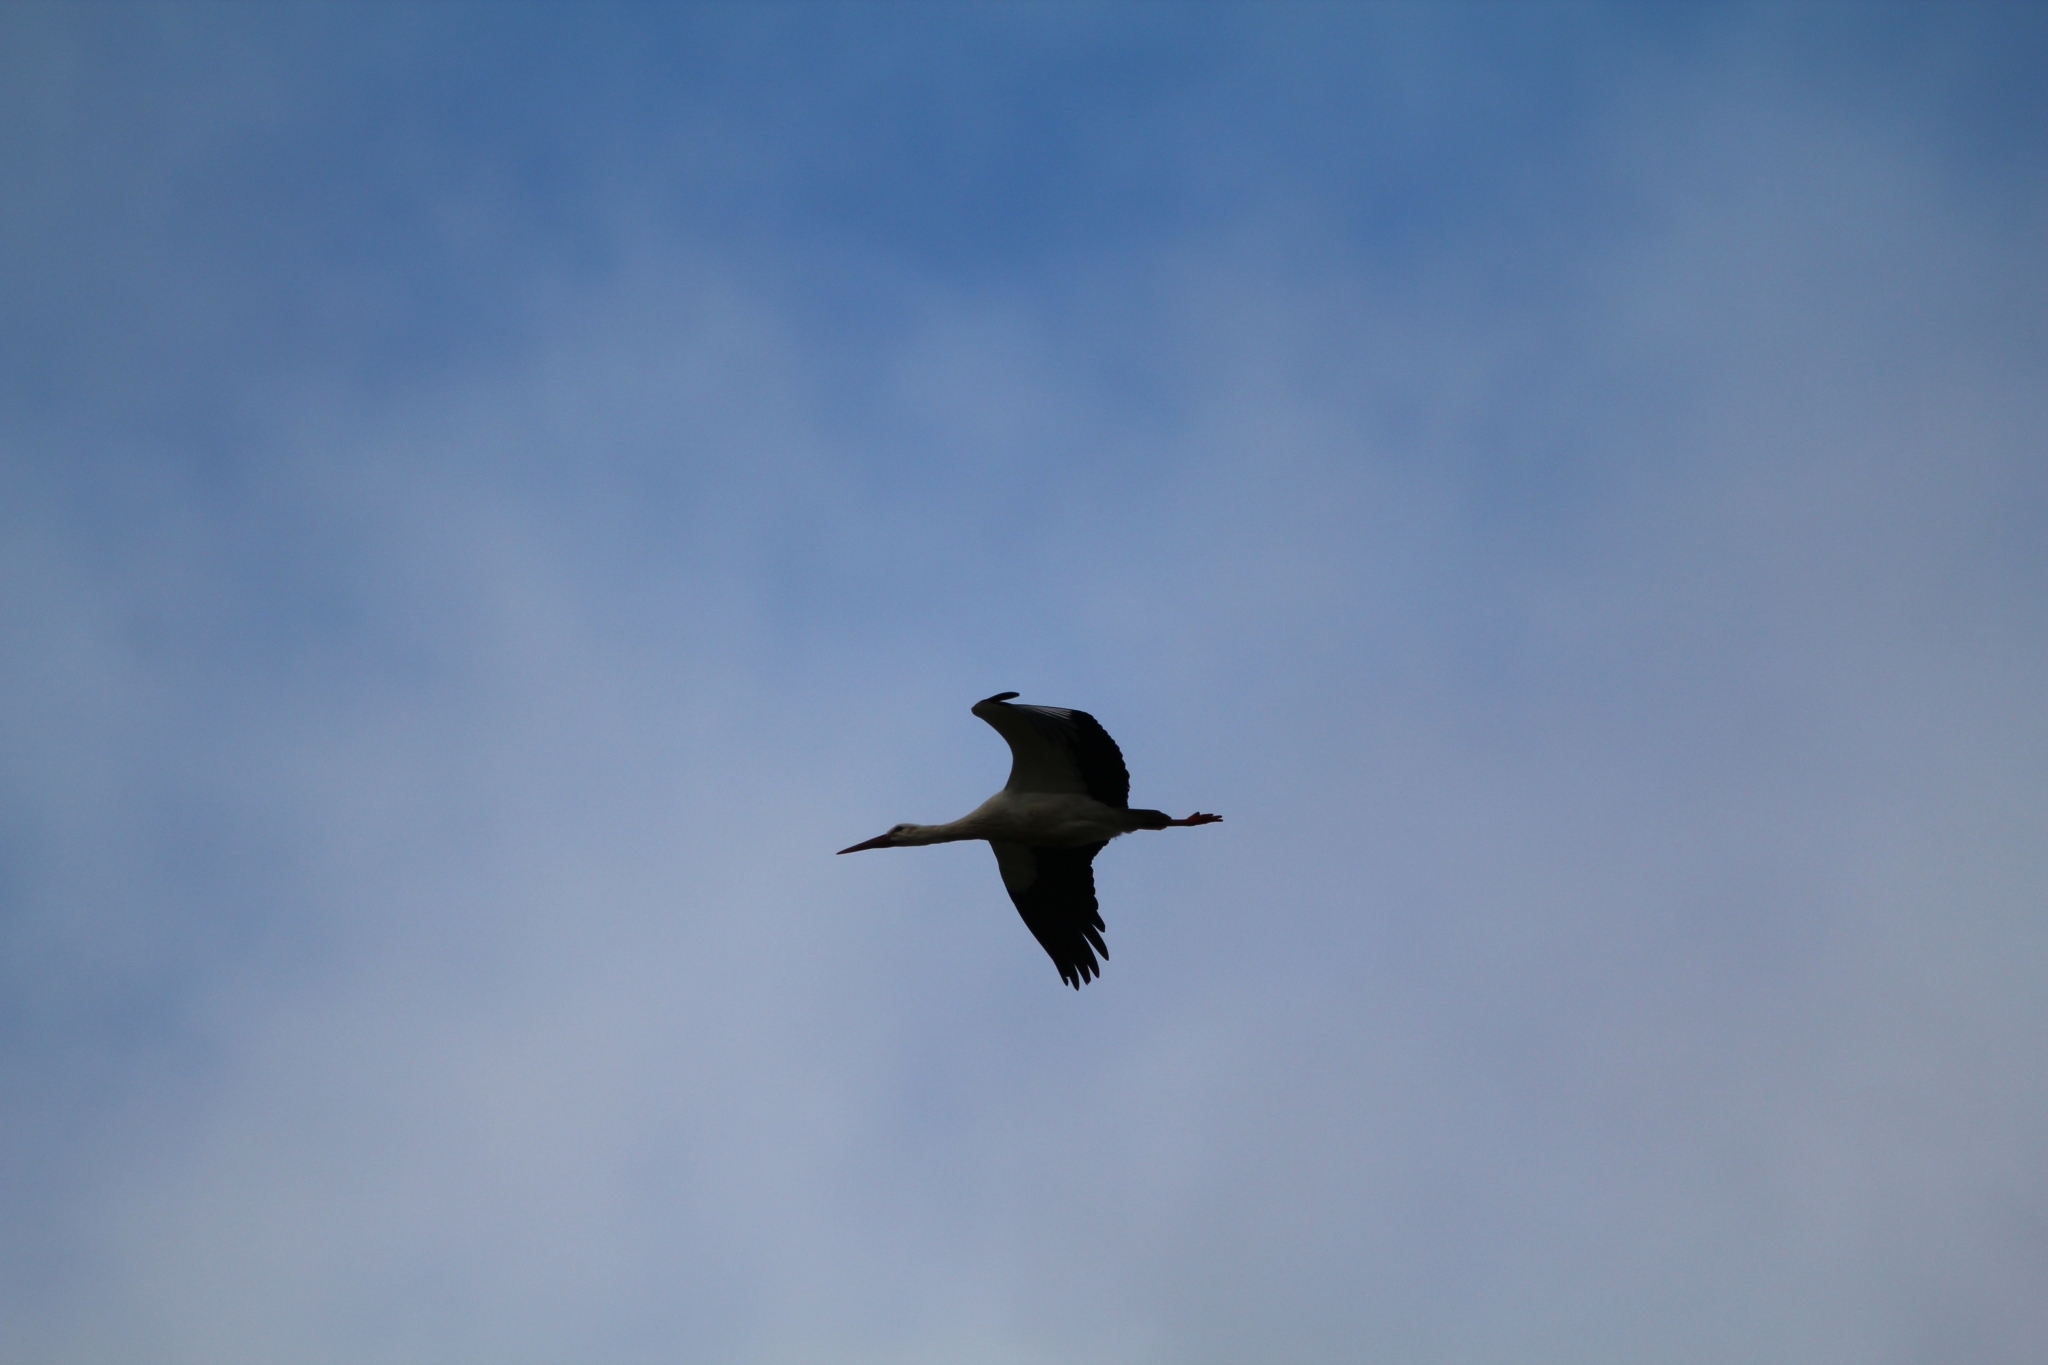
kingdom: Animalia
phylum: Chordata
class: Aves
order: Ciconiiformes
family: Ciconiidae
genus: Ciconia
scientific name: Ciconia ciconia
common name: White stork
